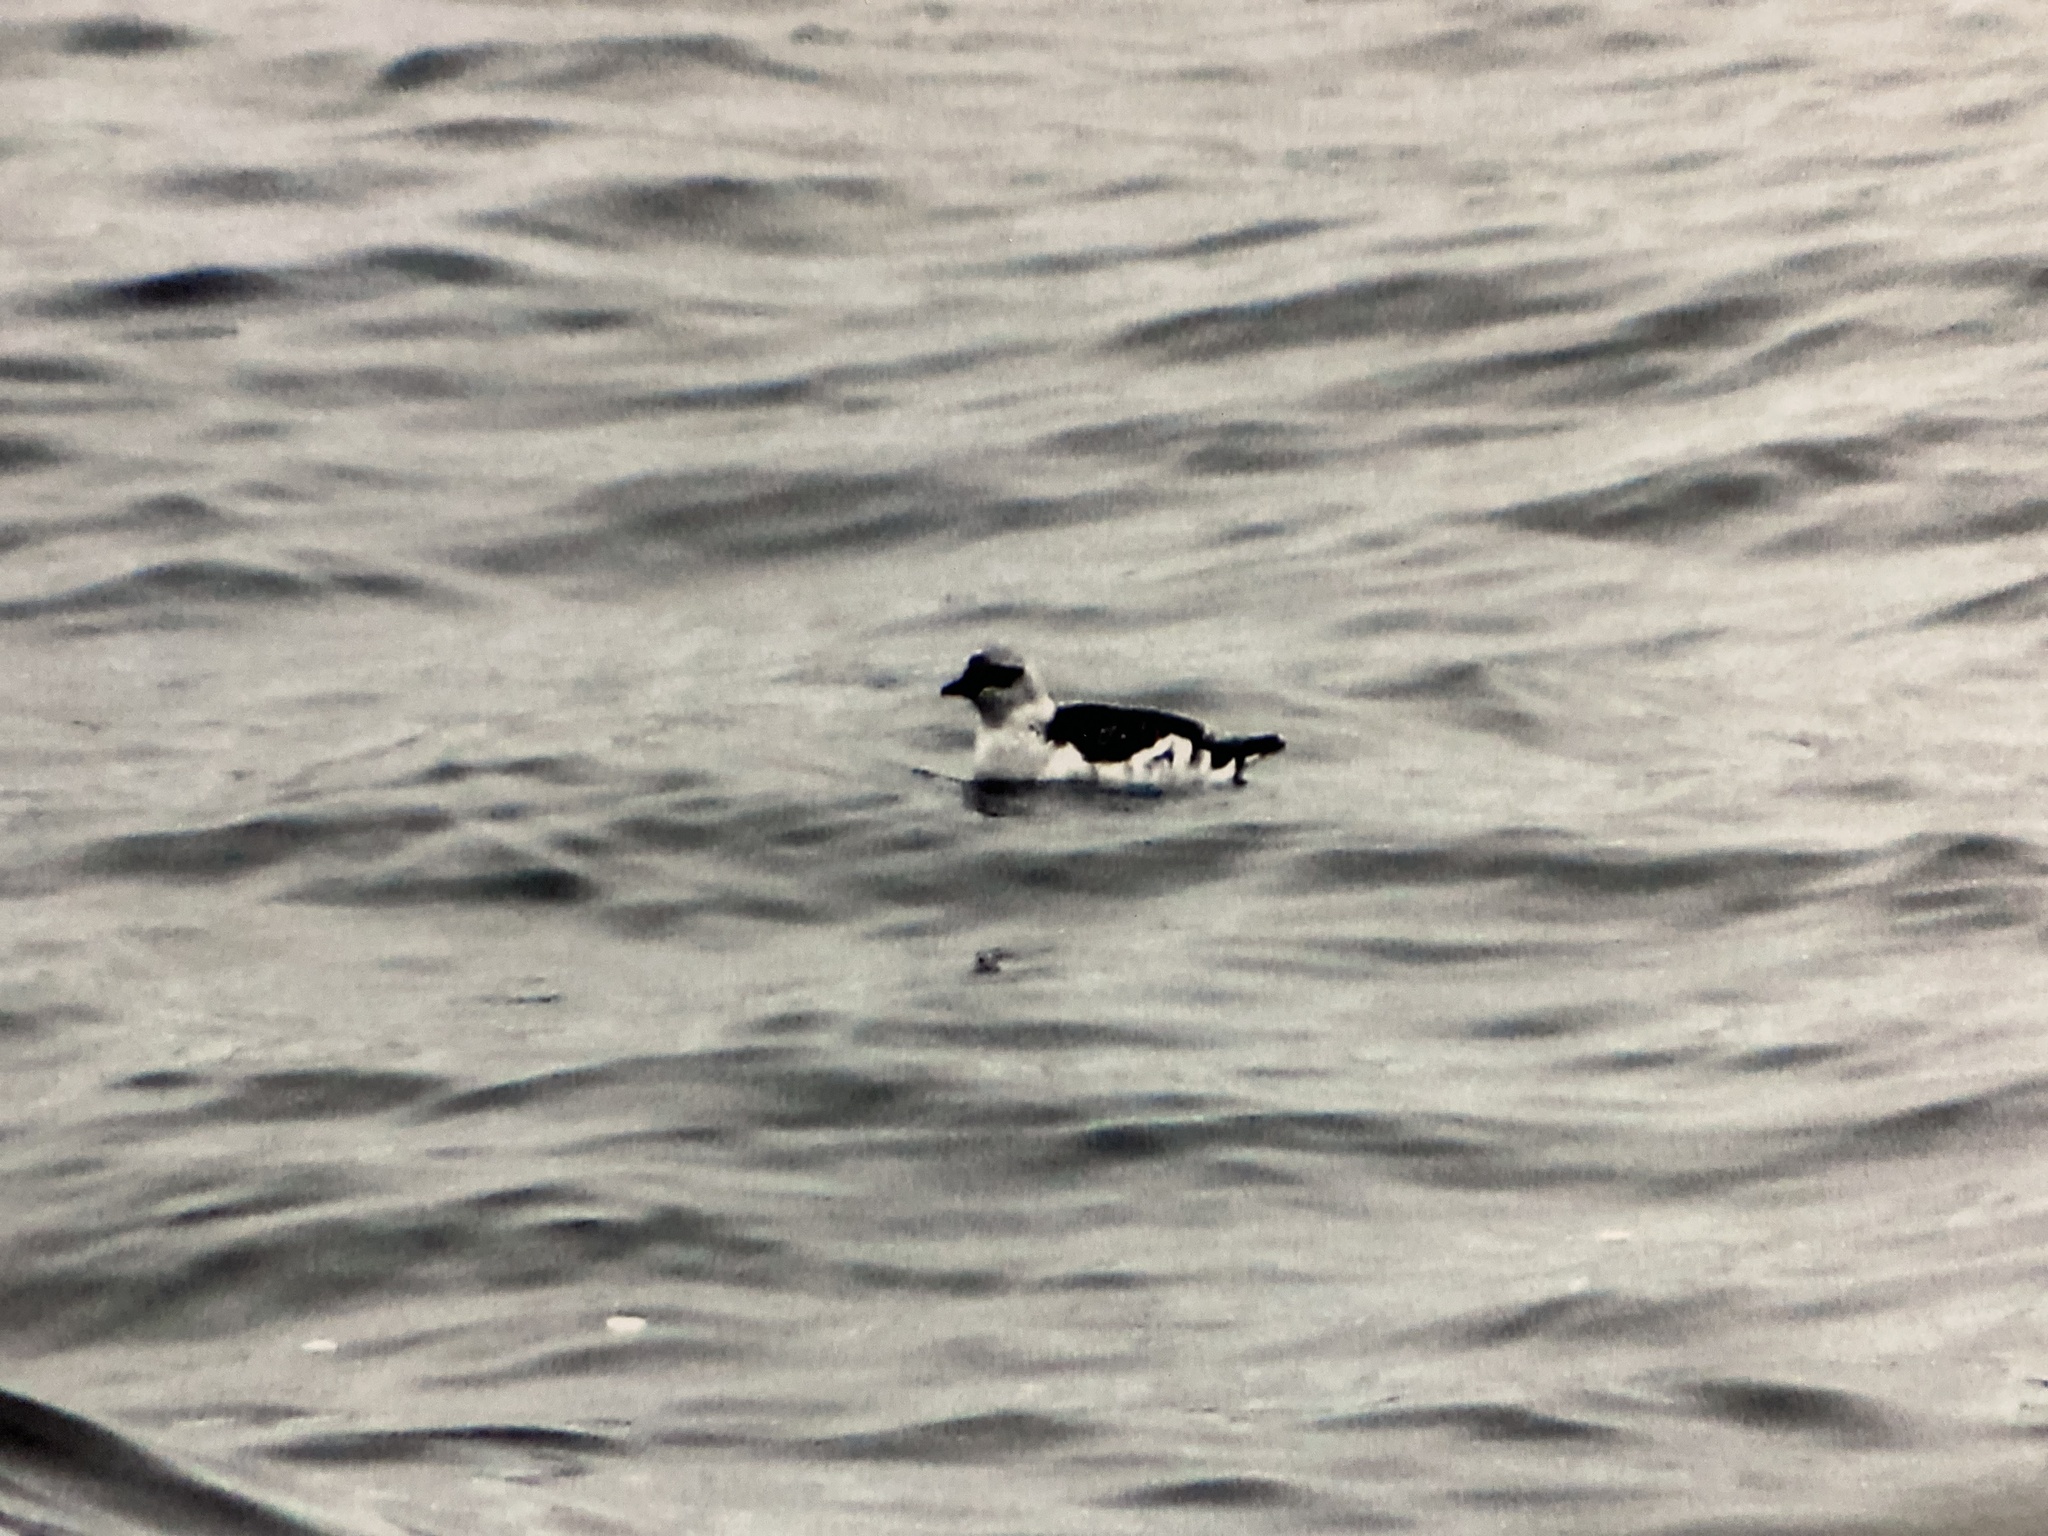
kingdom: Animalia
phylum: Chordata
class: Aves
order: Charadriiformes
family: Alcidae
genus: Cepphus
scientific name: Cepphus grylle
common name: Black guillemot
